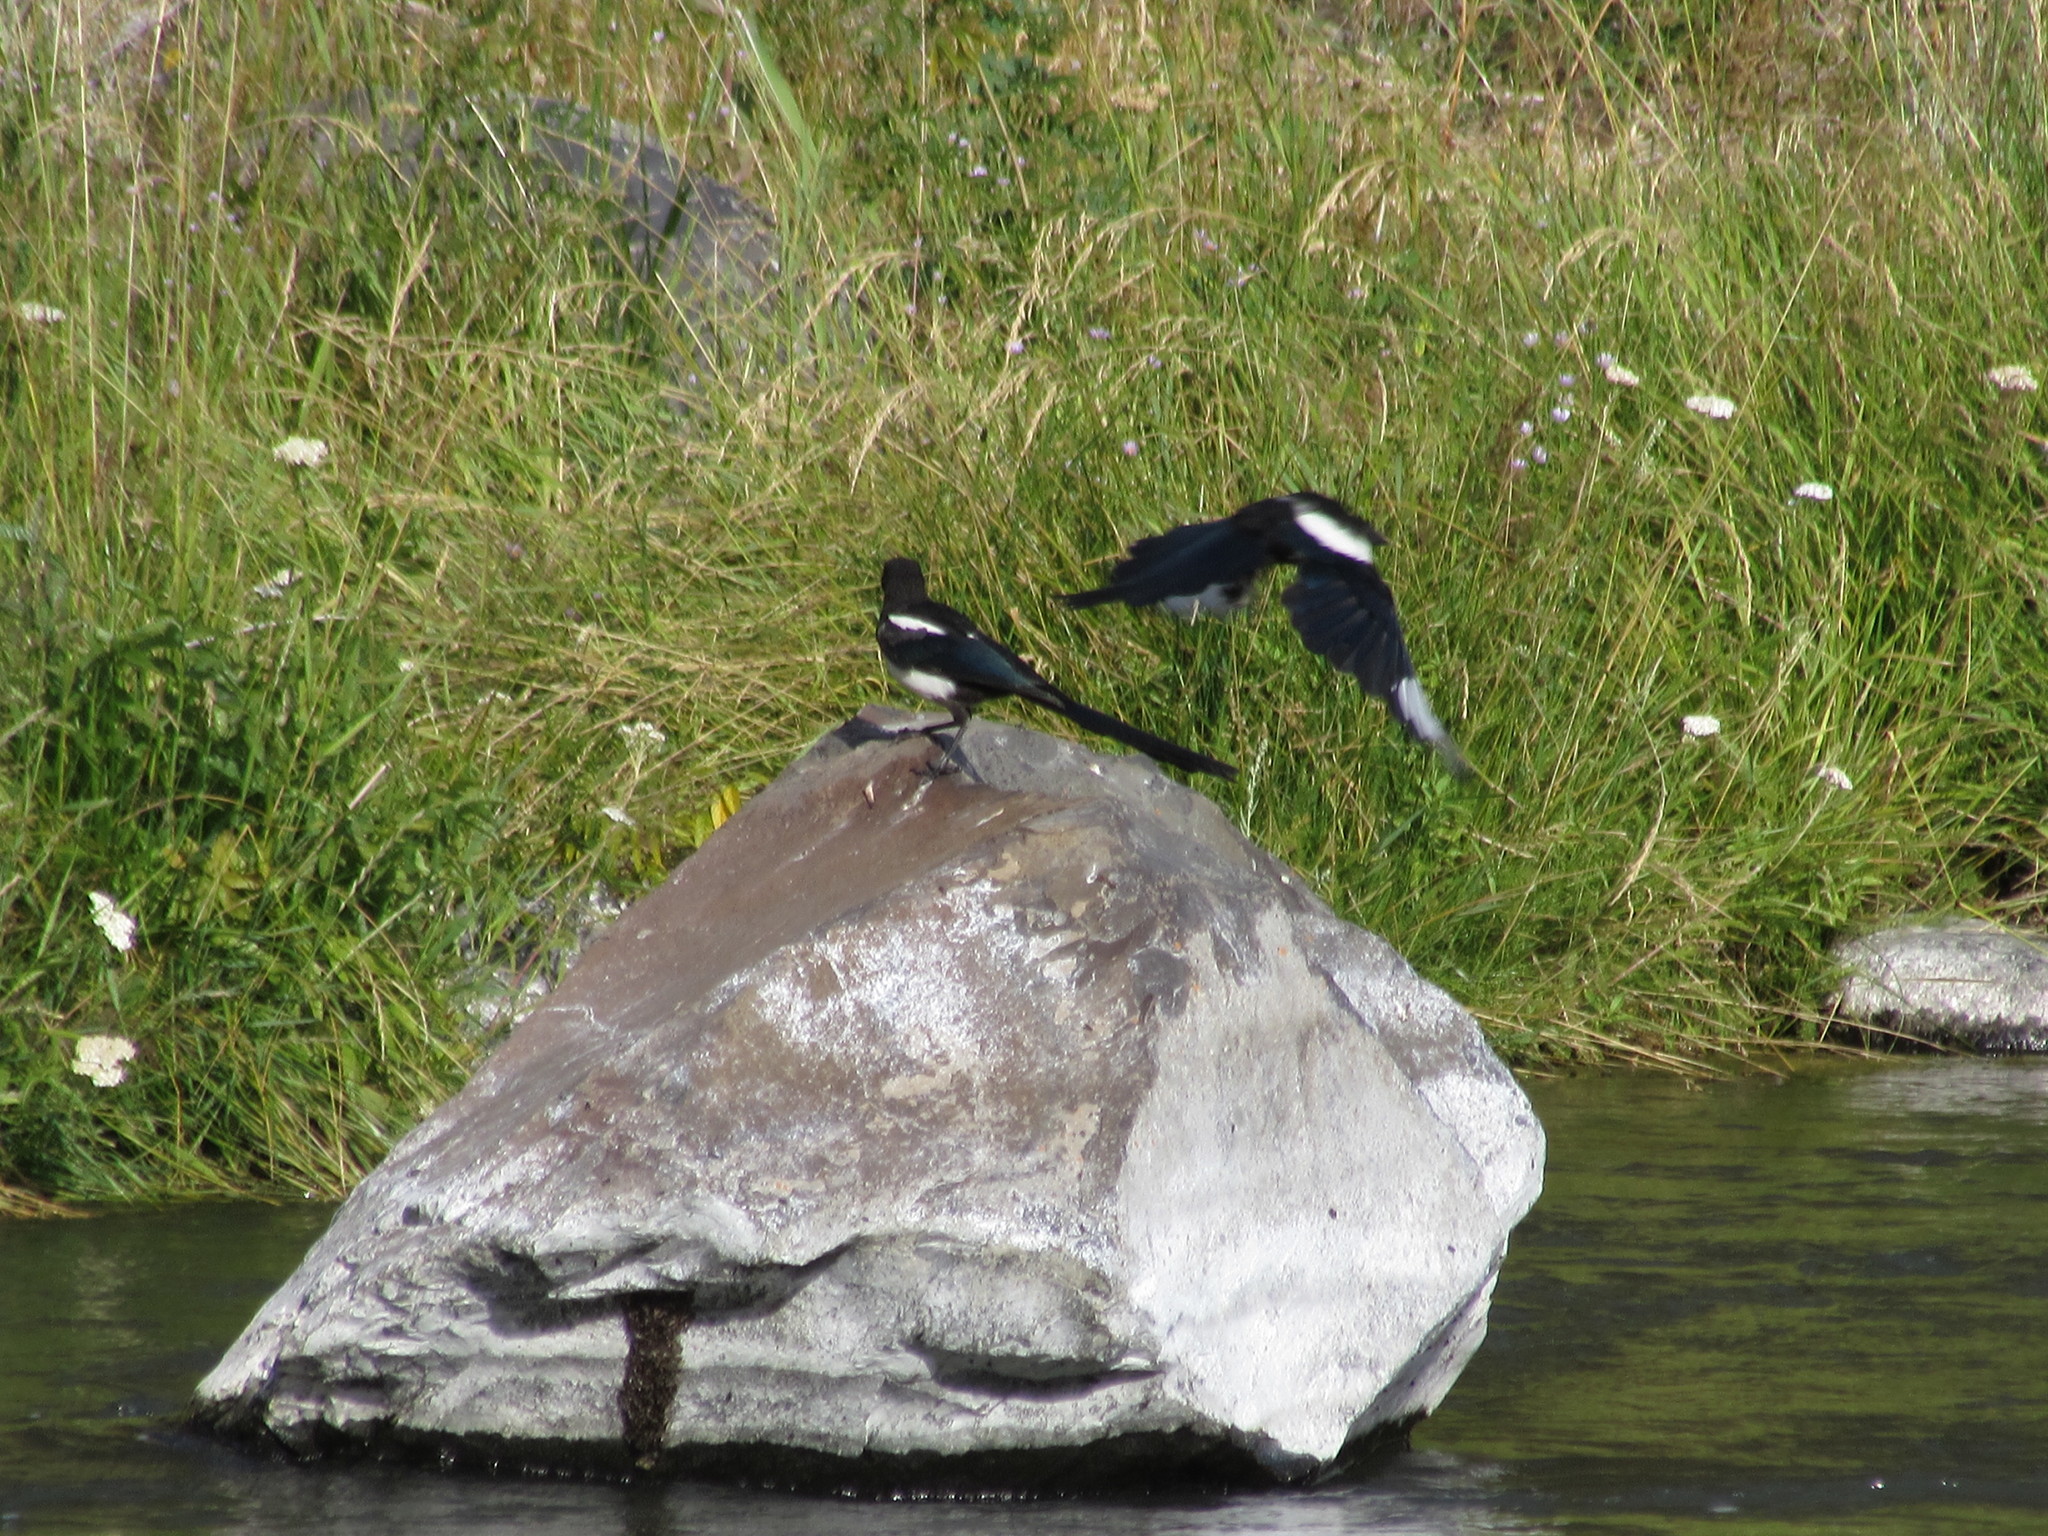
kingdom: Animalia
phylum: Chordata
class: Aves
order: Passeriformes
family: Corvidae
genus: Pica
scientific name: Pica hudsonia
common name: Black-billed magpie
